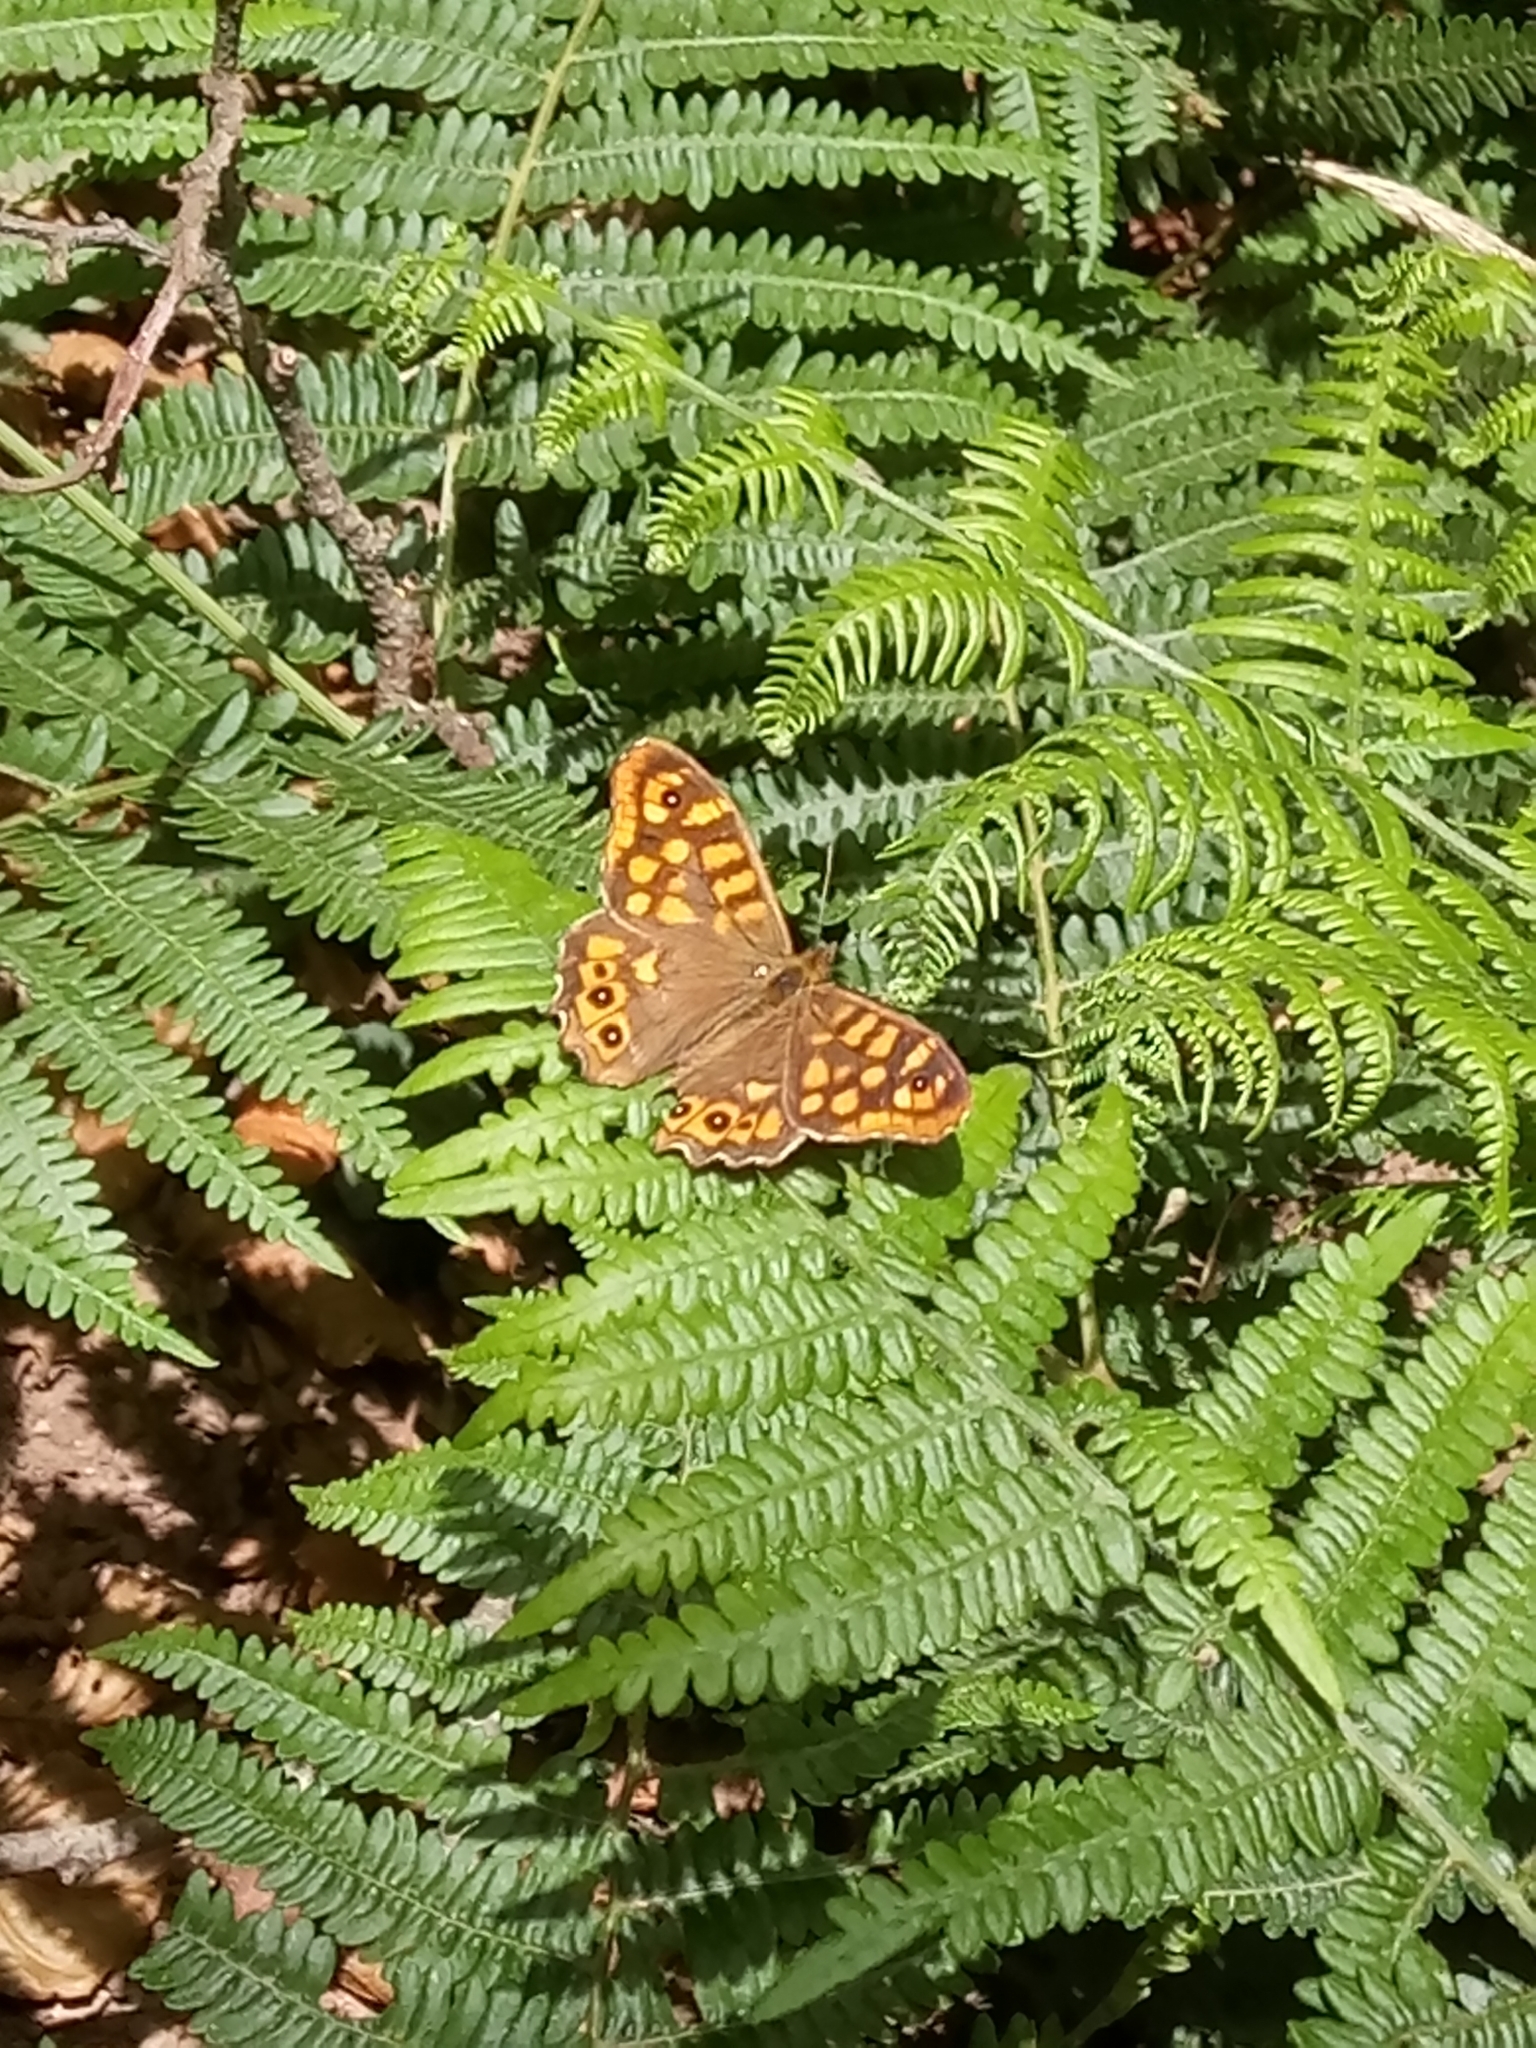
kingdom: Animalia
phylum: Arthropoda
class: Insecta
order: Lepidoptera
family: Nymphalidae
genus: Pararge
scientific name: Pararge aegeria
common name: Speckled wood
